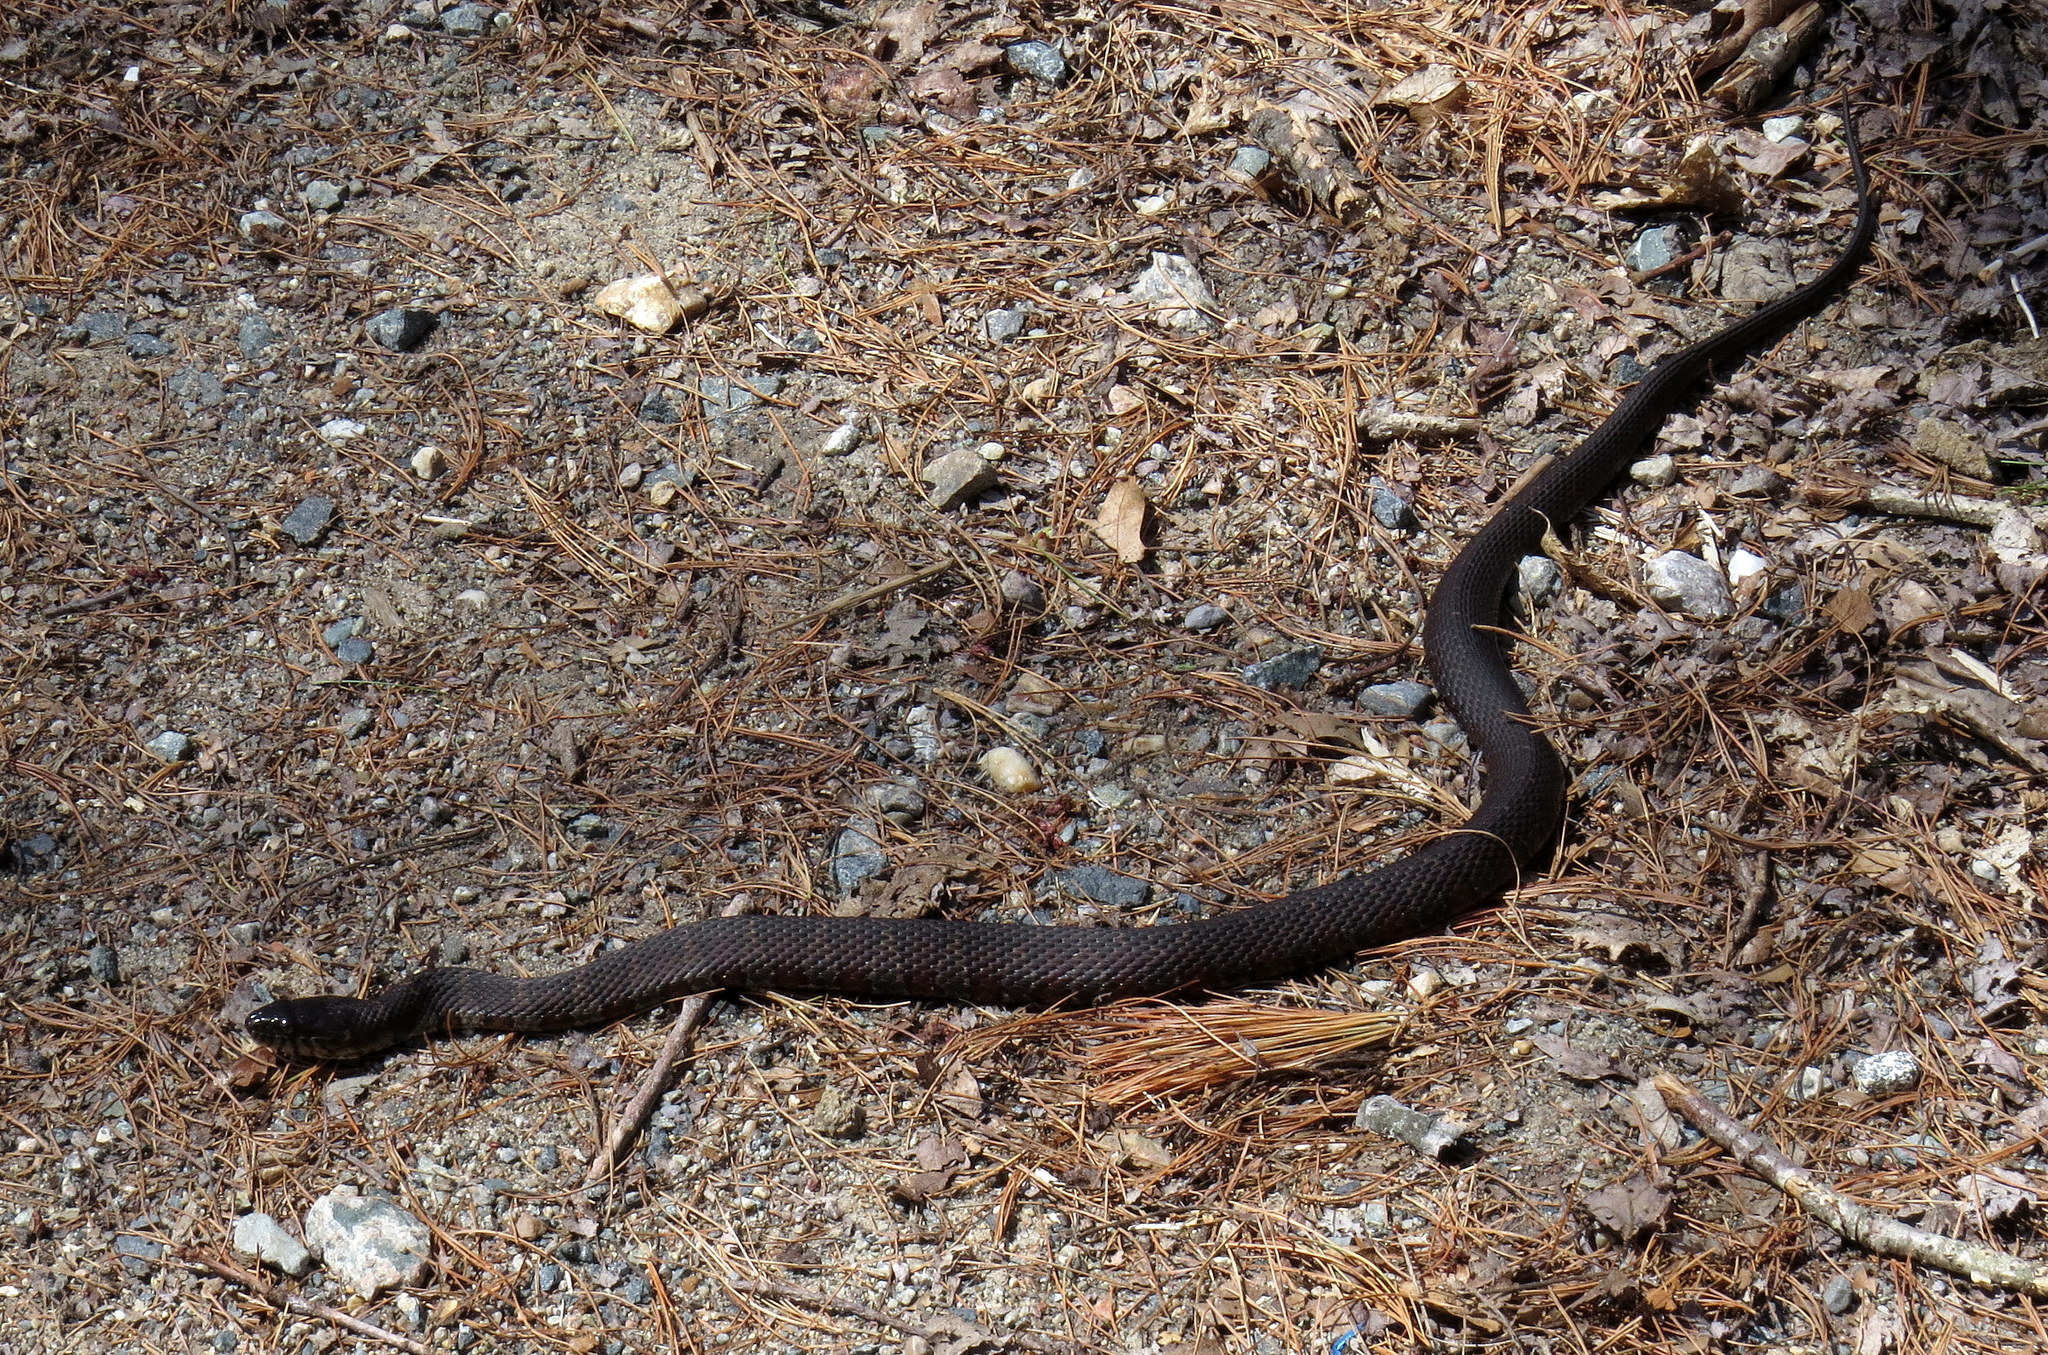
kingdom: Animalia
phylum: Chordata
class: Squamata
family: Colubridae
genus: Nerodia
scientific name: Nerodia sipedon
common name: Northern water snake
